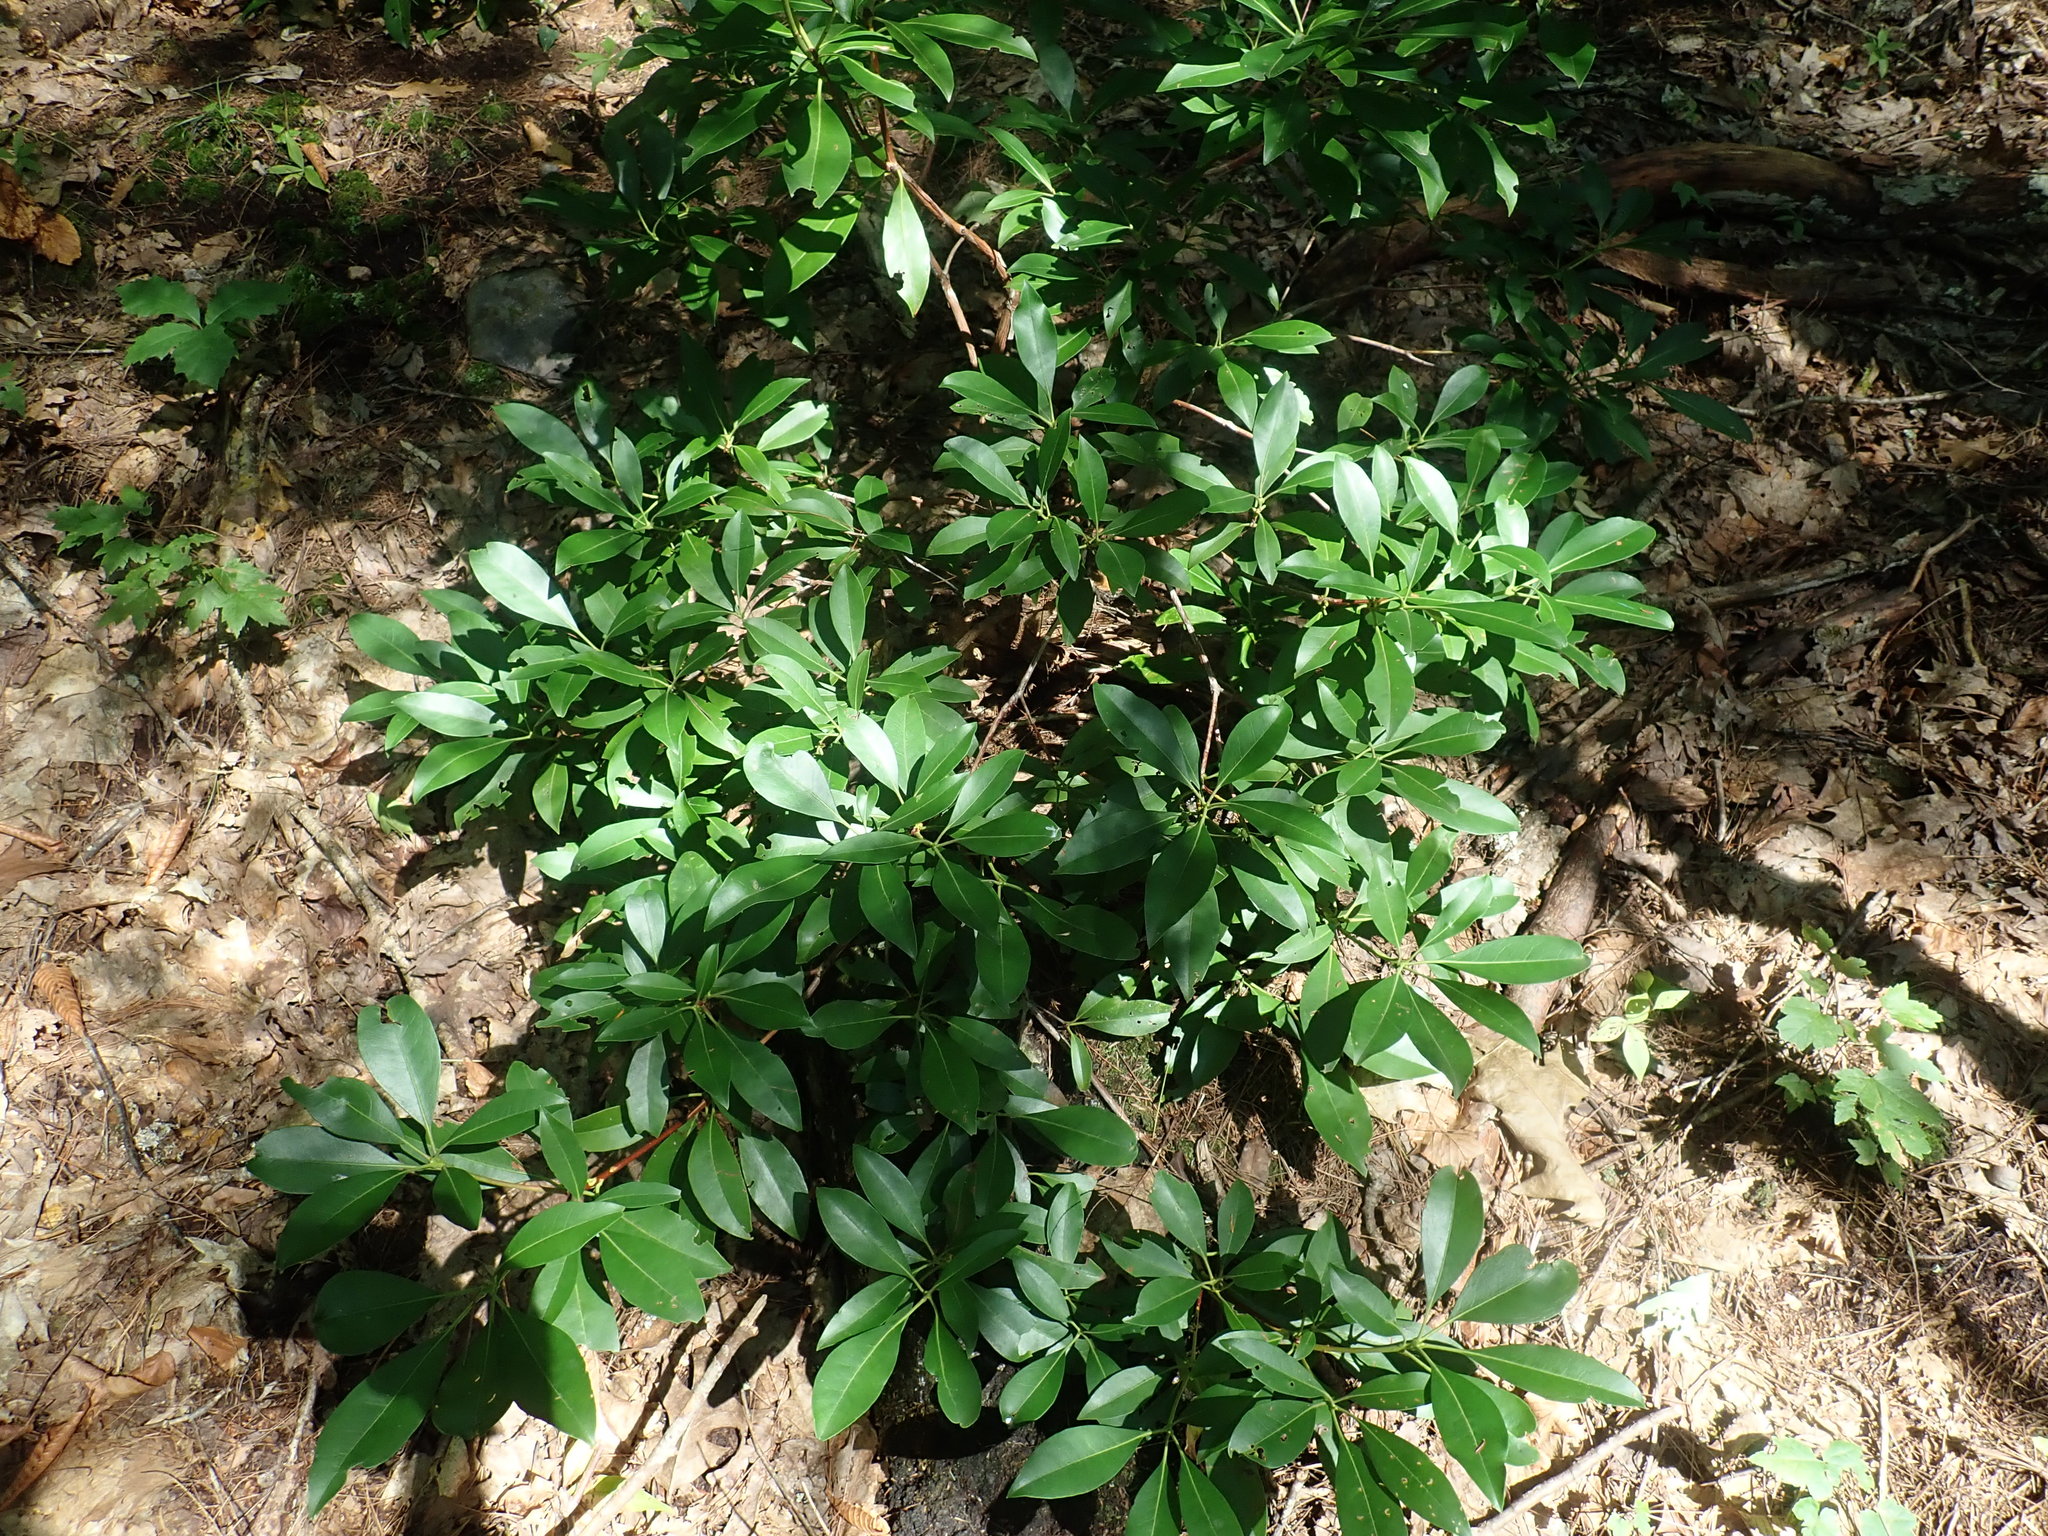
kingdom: Plantae
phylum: Tracheophyta
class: Magnoliopsida
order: Ericales
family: Ericaceae
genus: Kalmia
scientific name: Kalmia latifolia
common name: Mountain-laurel
